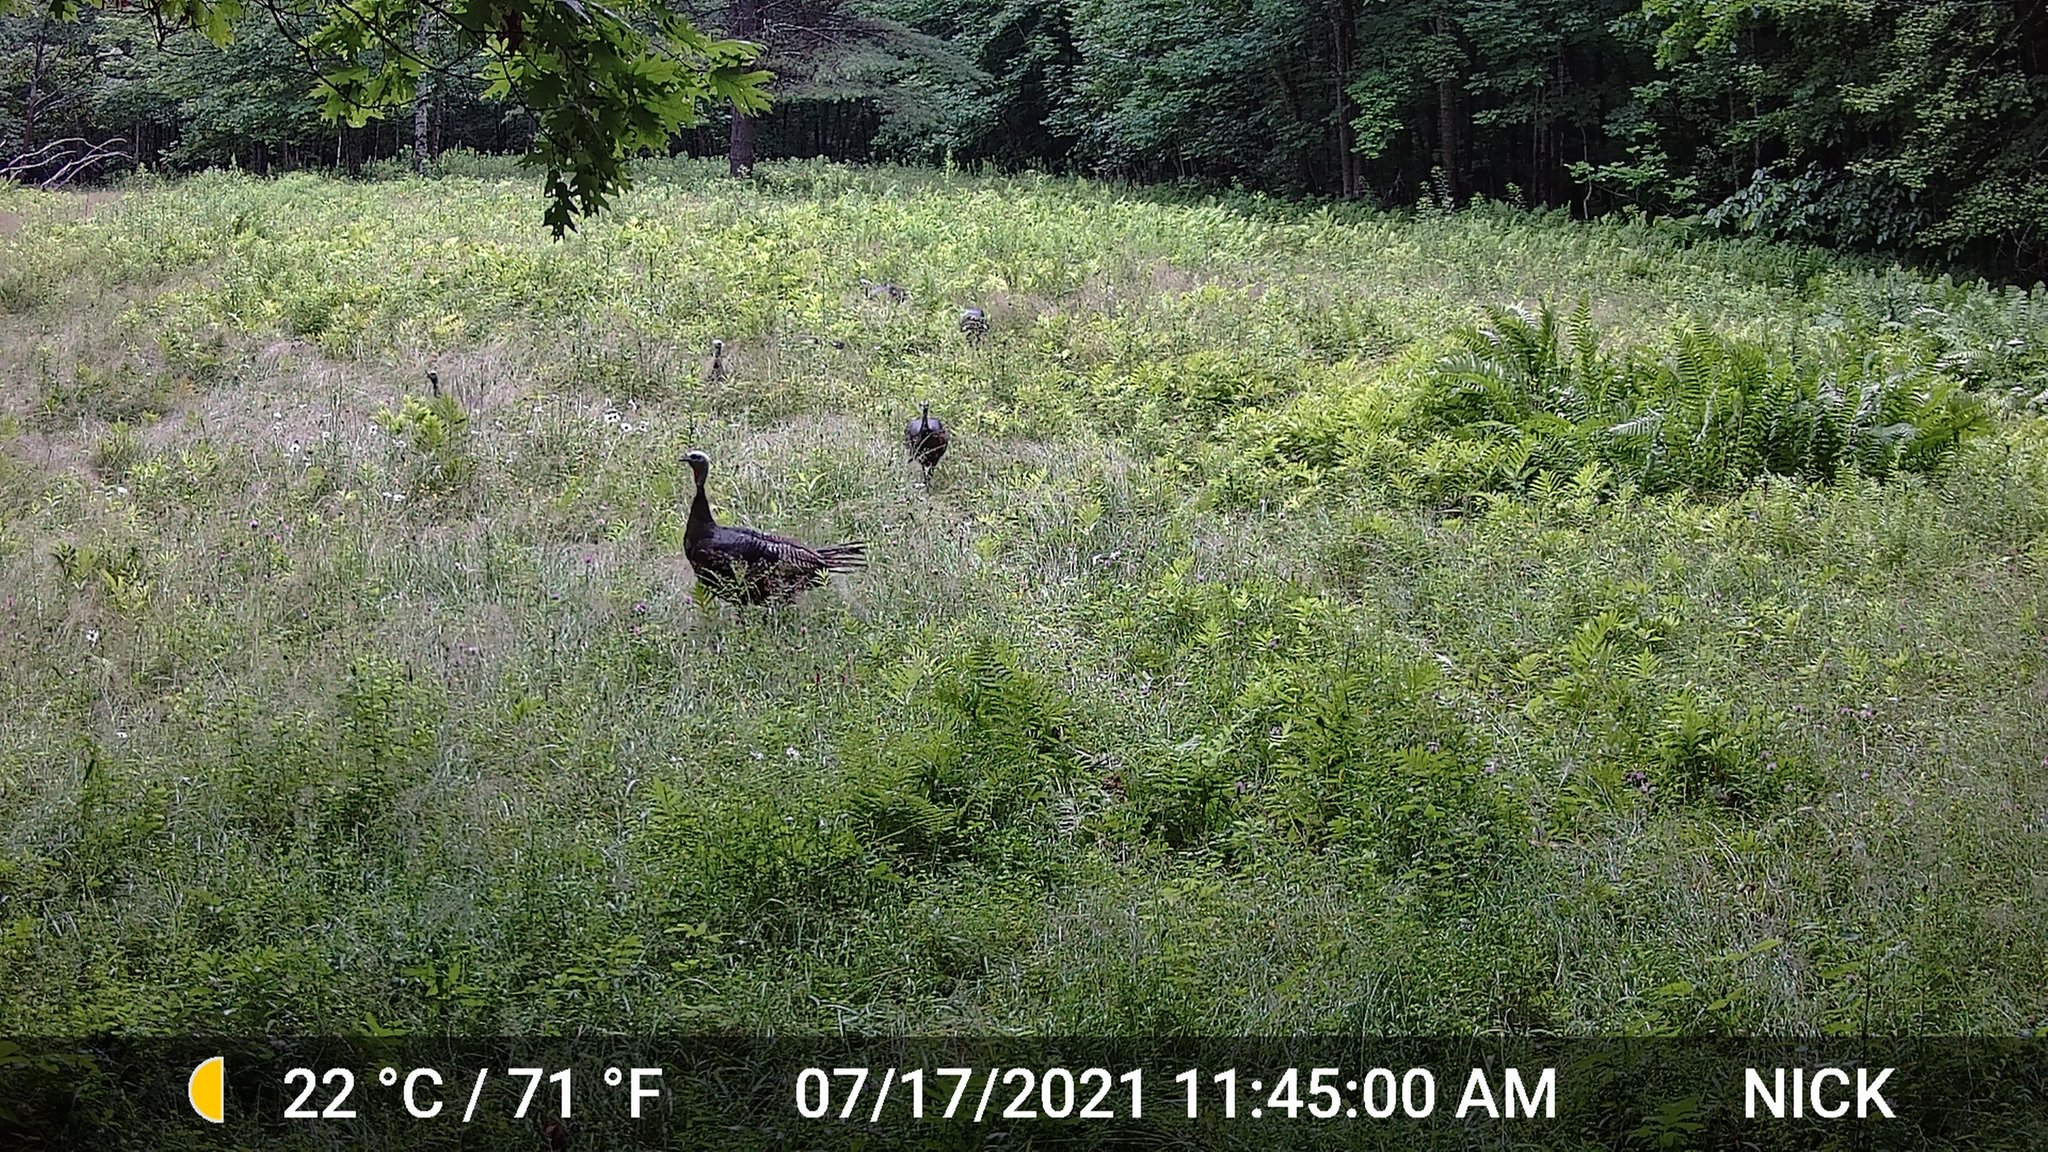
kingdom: Animalia
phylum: Chordata
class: Aves
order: Galliformes
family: Phasianidae
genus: Meleagris
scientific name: Meleagris gallopavo
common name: Wild turkey
